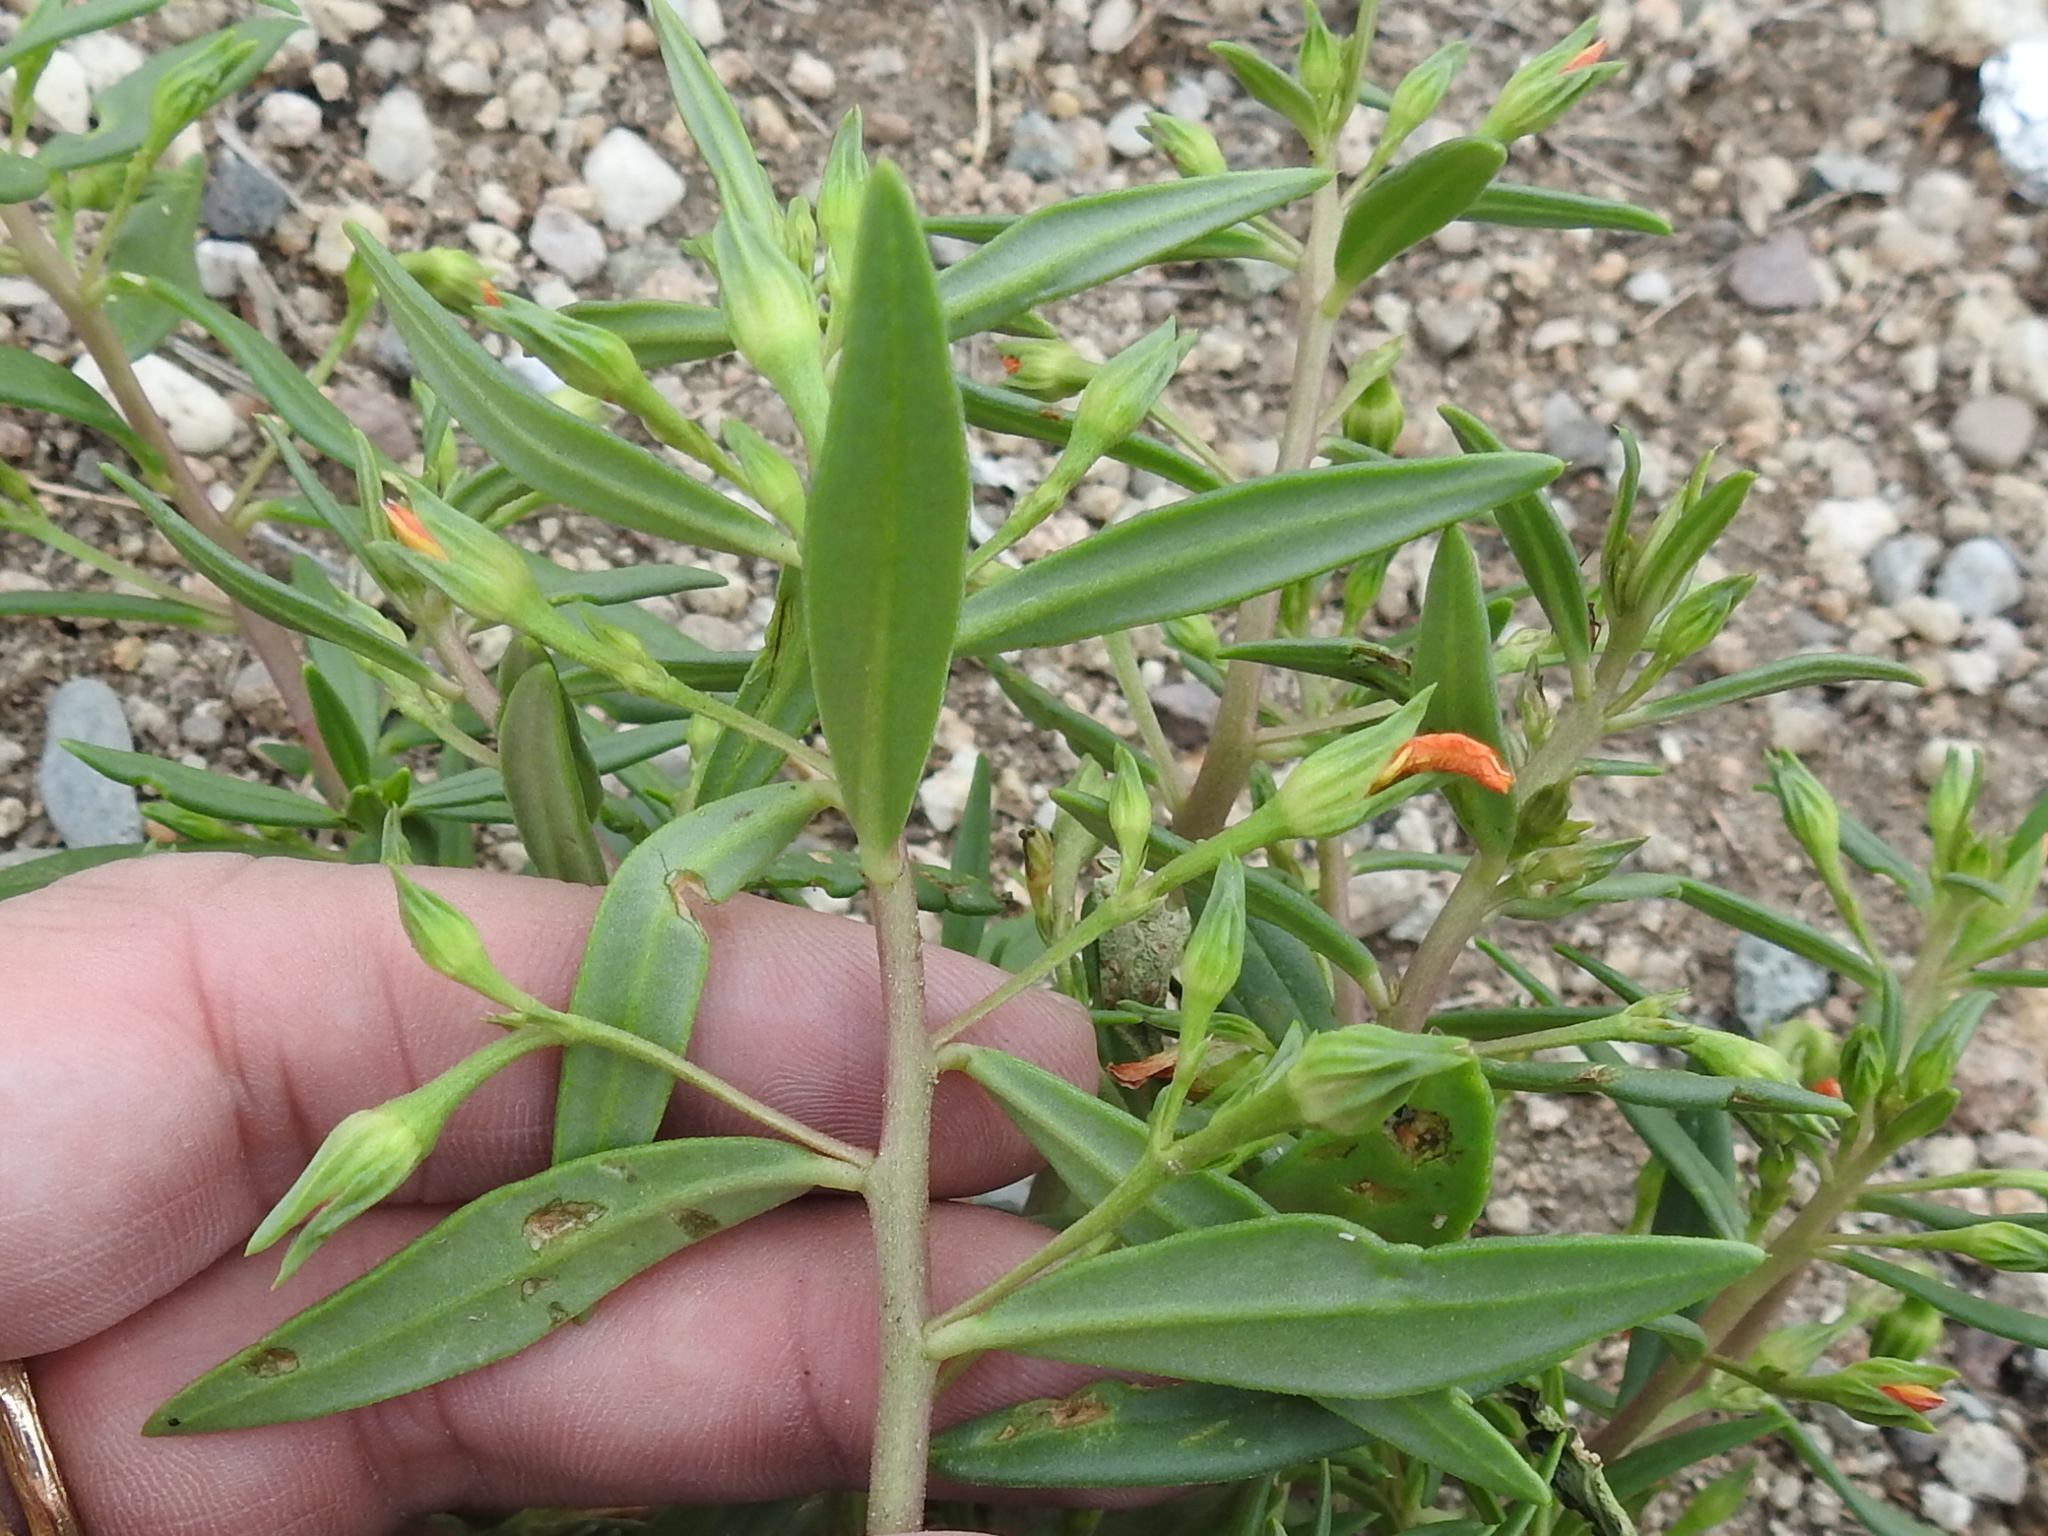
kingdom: Plantae
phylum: Tracheophyta
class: Magnoliopsida
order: Caryophyllales
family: Montiaceae
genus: Phemeranthus
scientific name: Phemeranthus aurantiacus
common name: Orange fameflower
